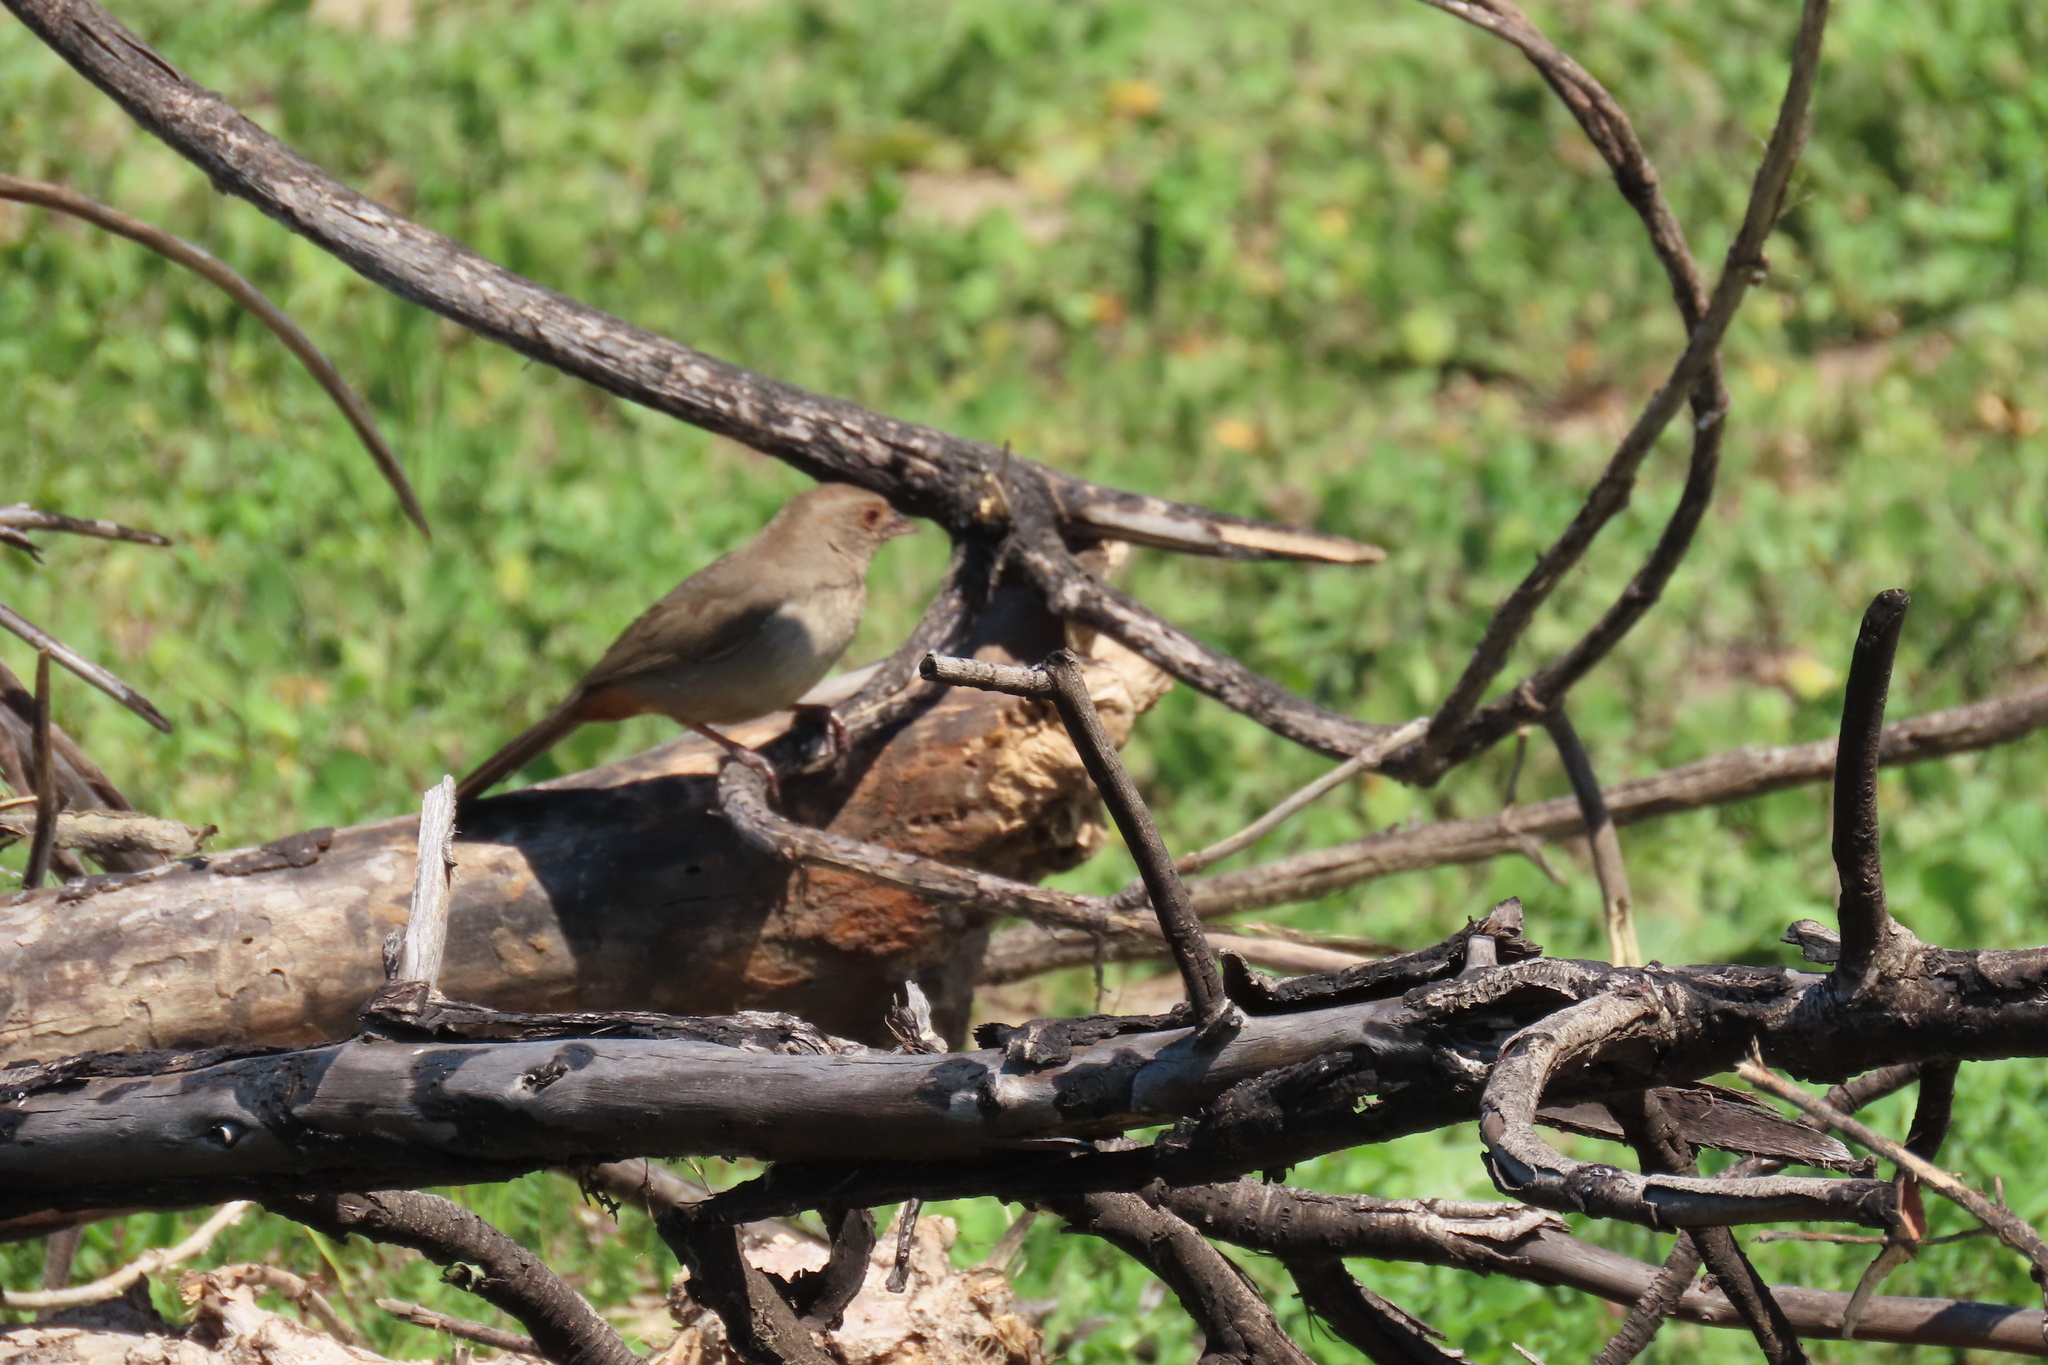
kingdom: Animalia
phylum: Chordata
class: Aves
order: Passeriformes
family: Passerellidae
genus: Melozone
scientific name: Melozone crissalis
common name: California towhee
